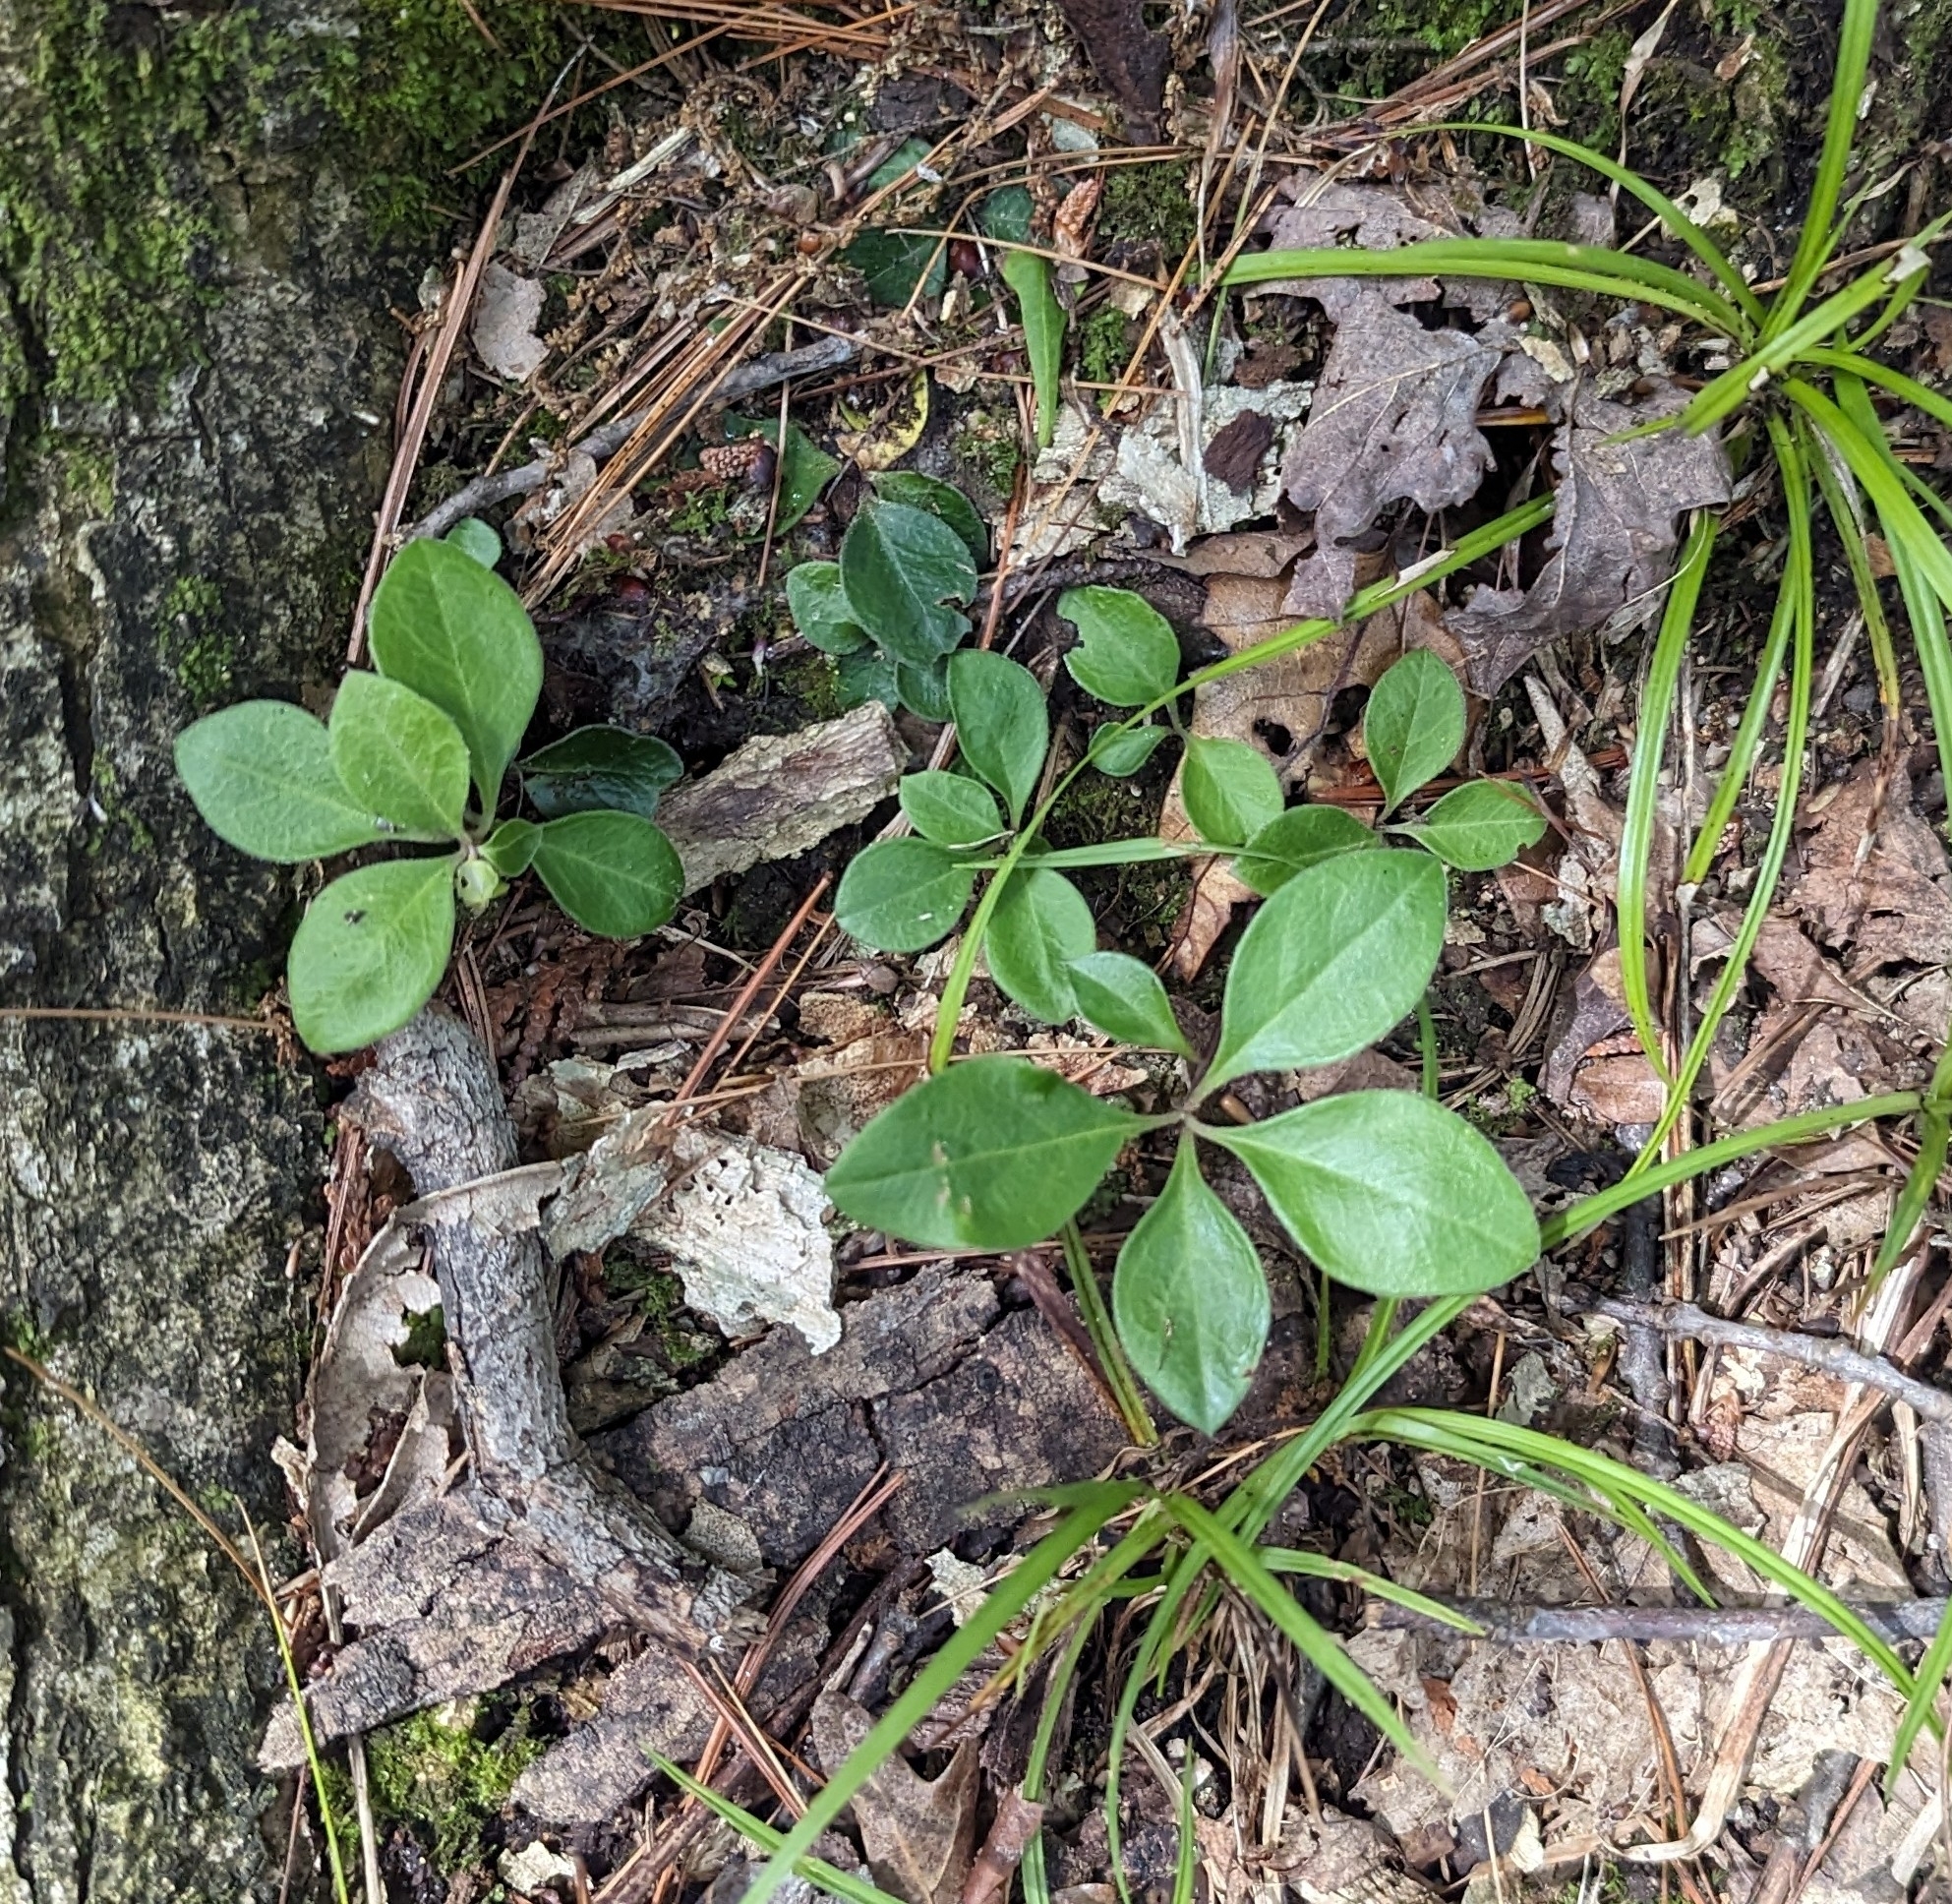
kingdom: Plantae
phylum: Tracheophyta
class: Magnoliopsida
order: Fabales
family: Polygalaceae
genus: Polygaloides
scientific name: Polygaloides paucifolia
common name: Bird-on-the-wing
